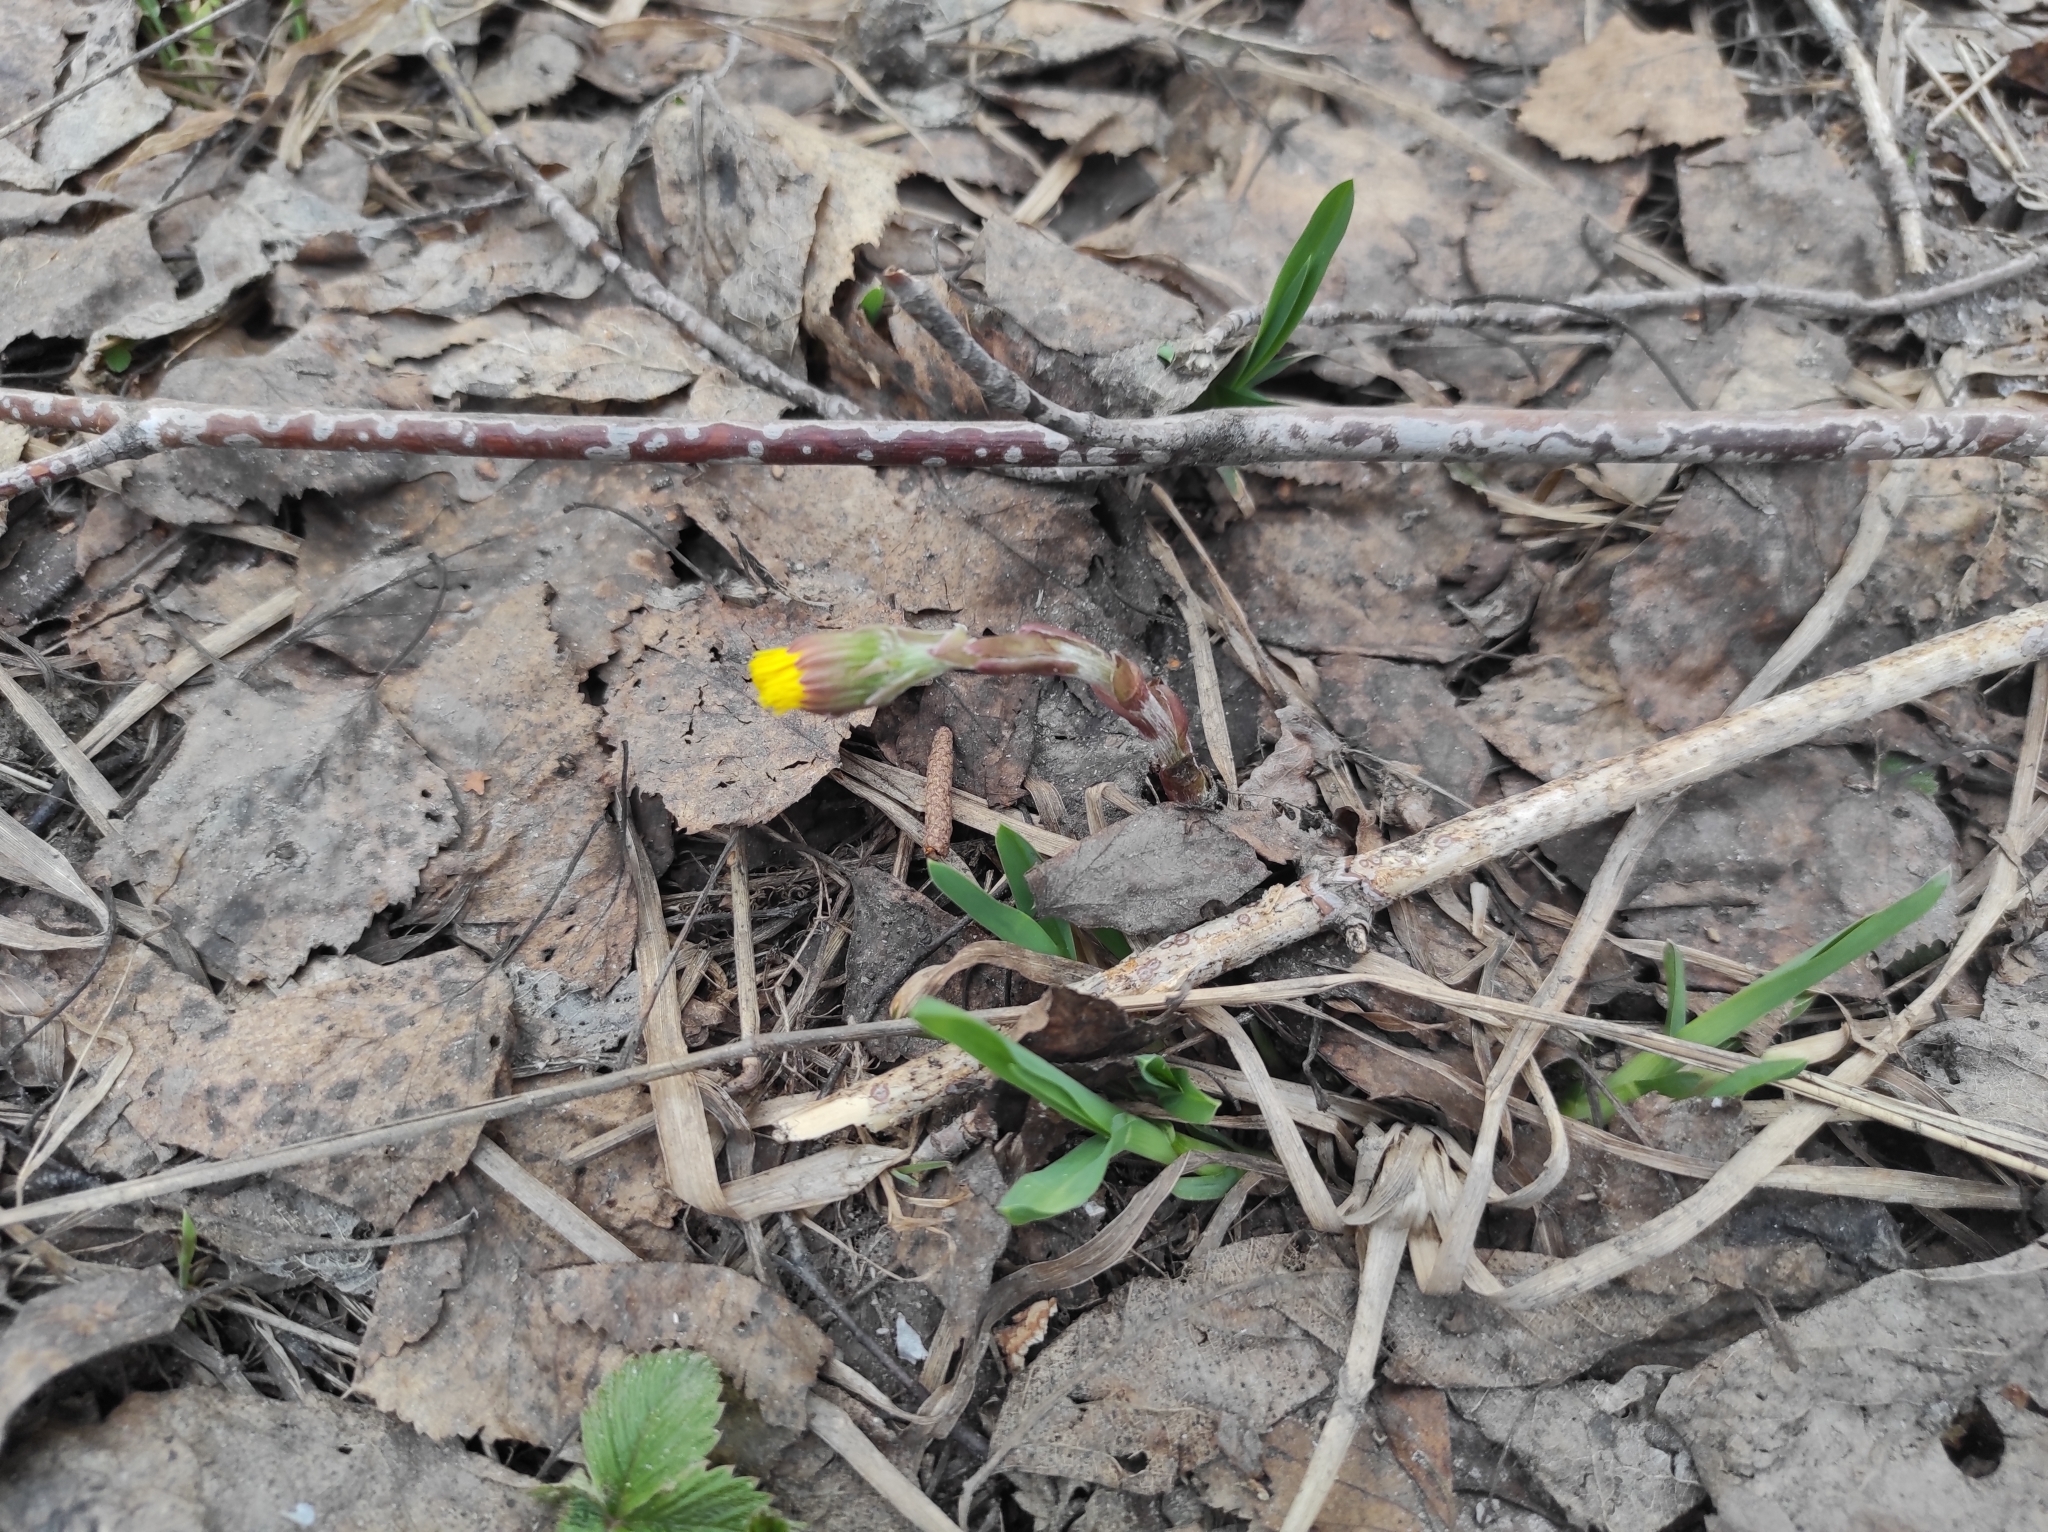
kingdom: Plantae
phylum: Tracheophyta
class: Magnoliopsida
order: Asterales
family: Asteraceae
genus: Tussilago
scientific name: Tussilago farfara
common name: Coltsfoot
